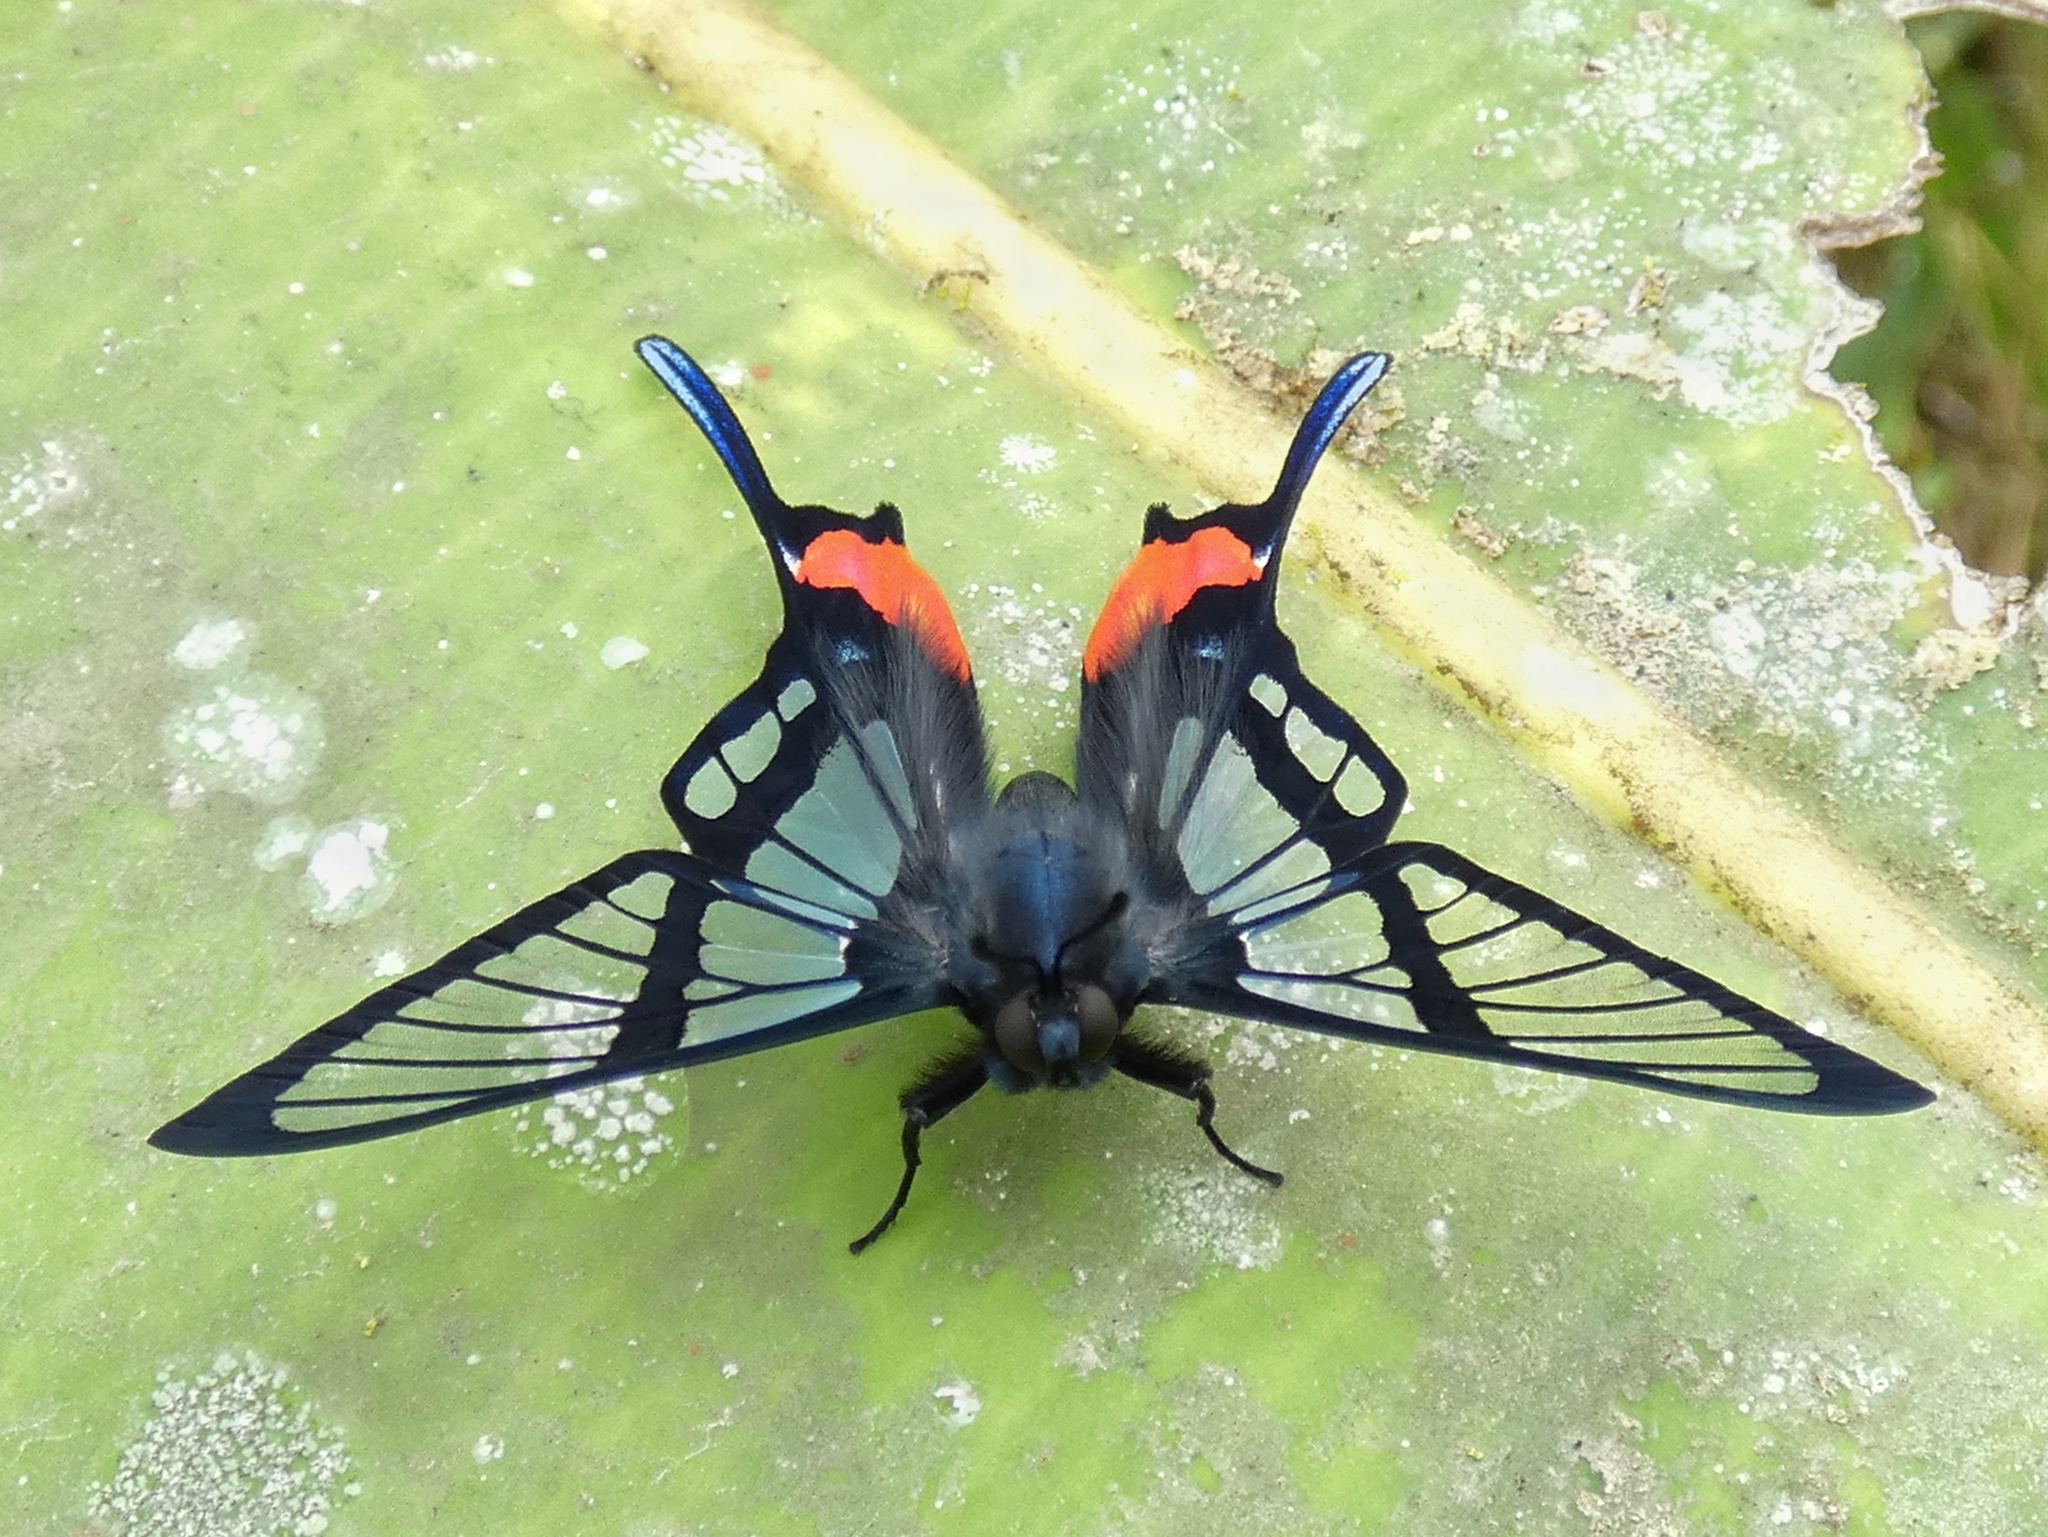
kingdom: Animalia
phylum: Arthropoda
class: Insecta
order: Lepidoptera
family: Riodinidae
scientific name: Riodinidae
